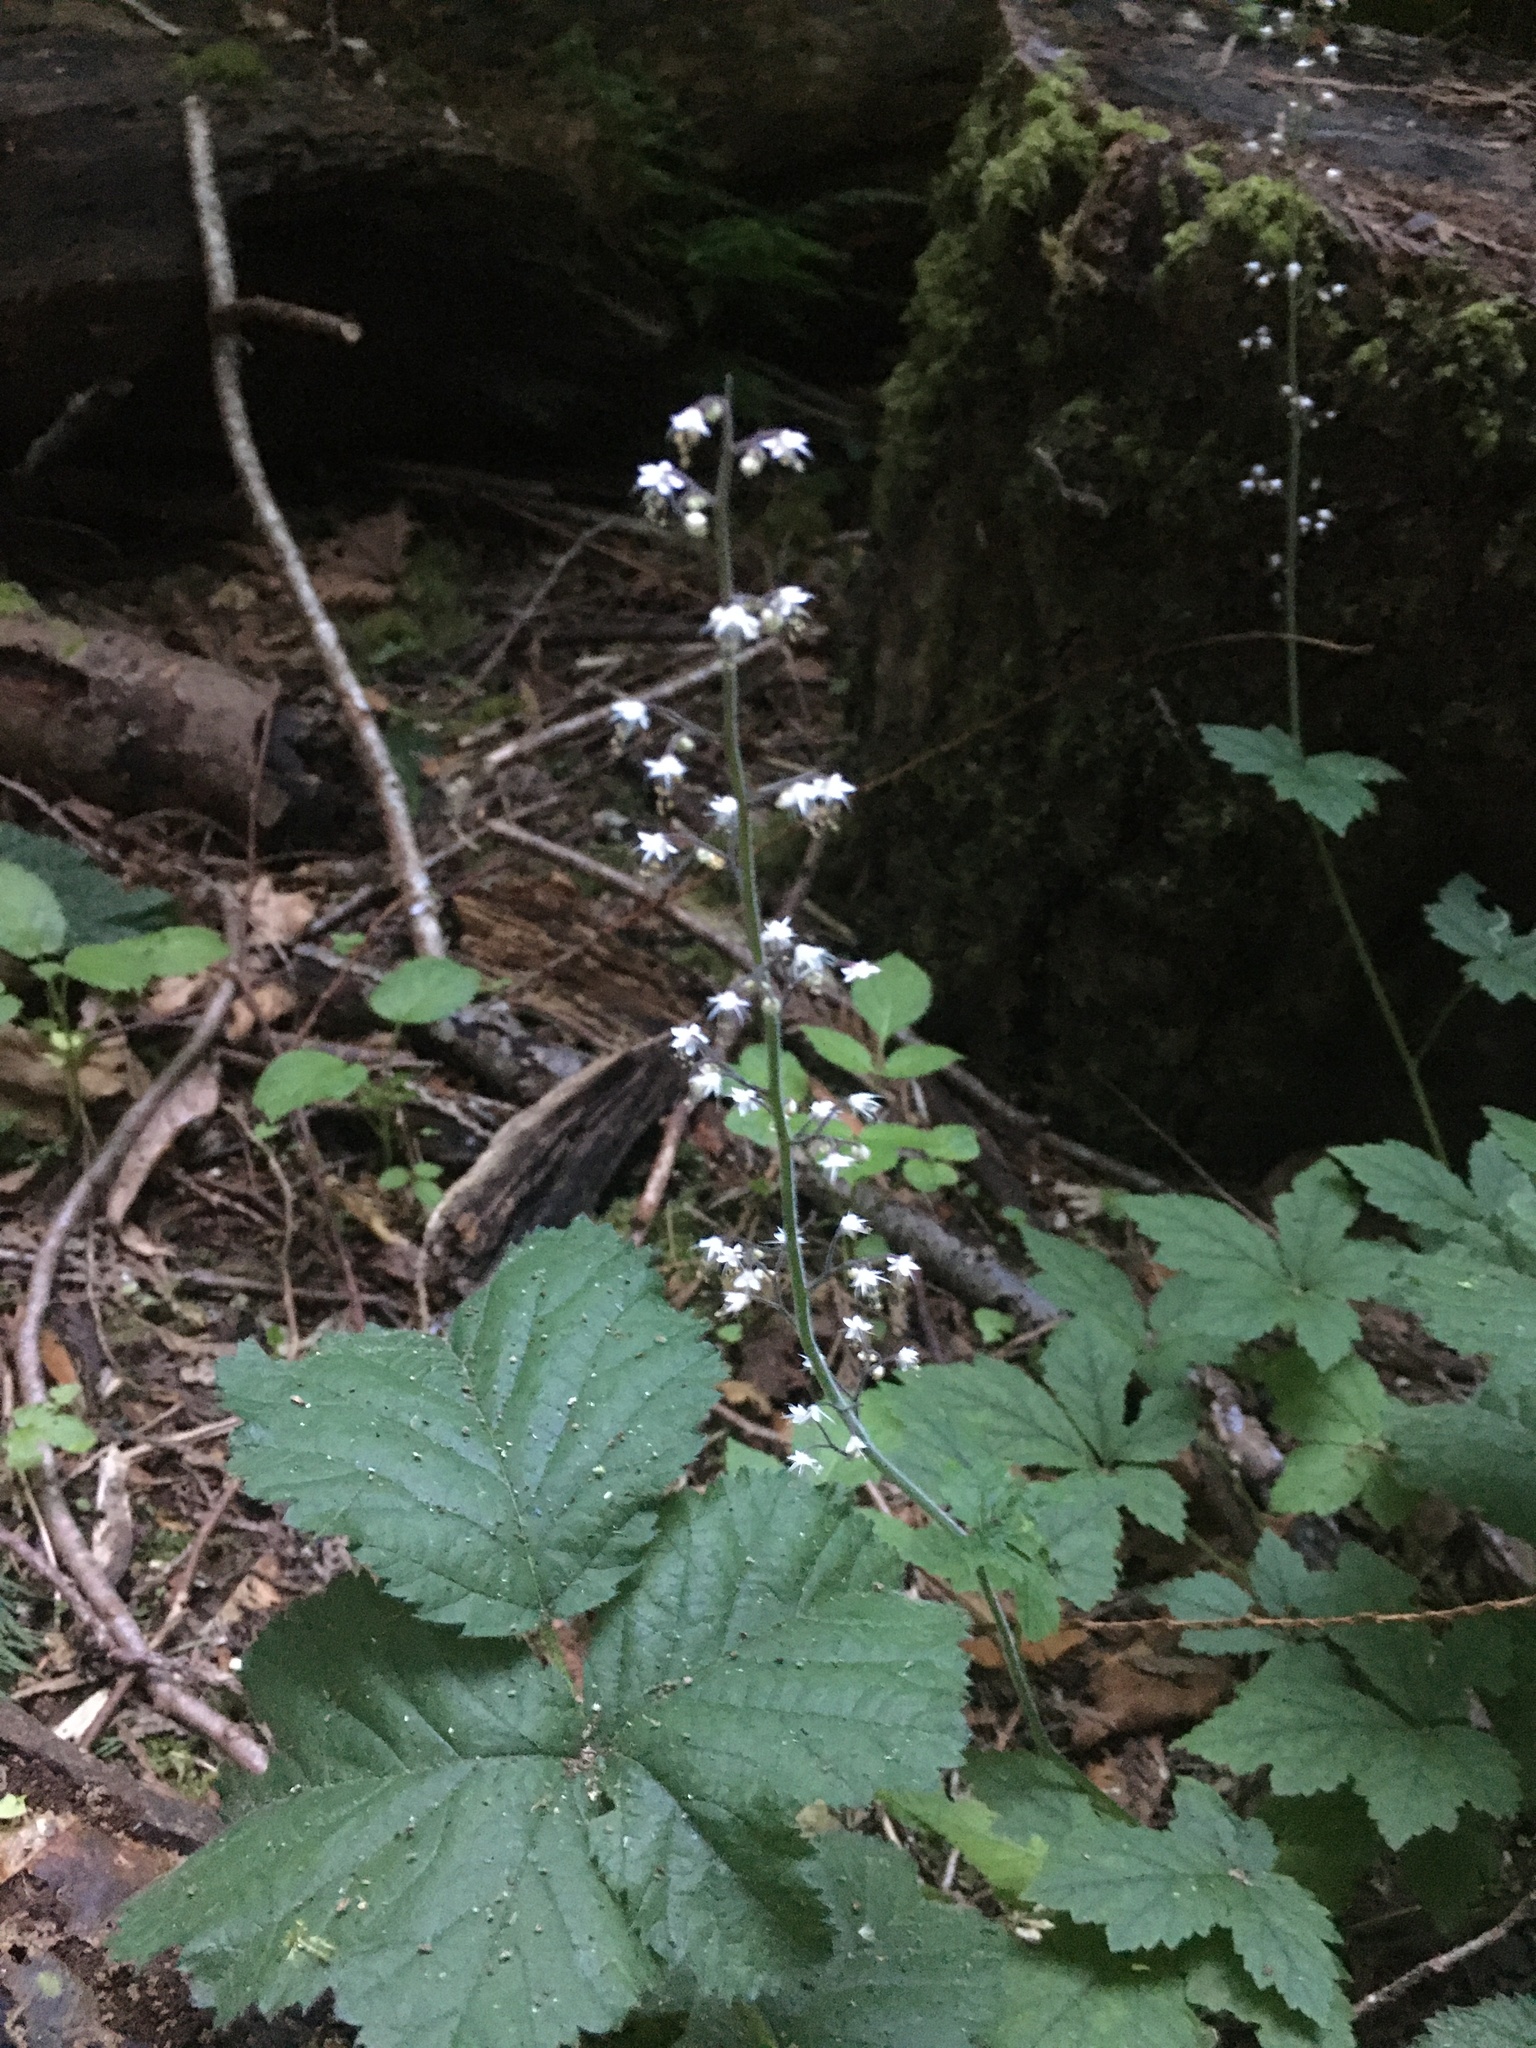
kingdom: Plantae
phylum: Tracheophyta
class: Magnoliopsida
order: Saxifragales
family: Saxifragaceae
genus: Tiarella
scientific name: Tiarella trifoliata
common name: Sugar-scoop
